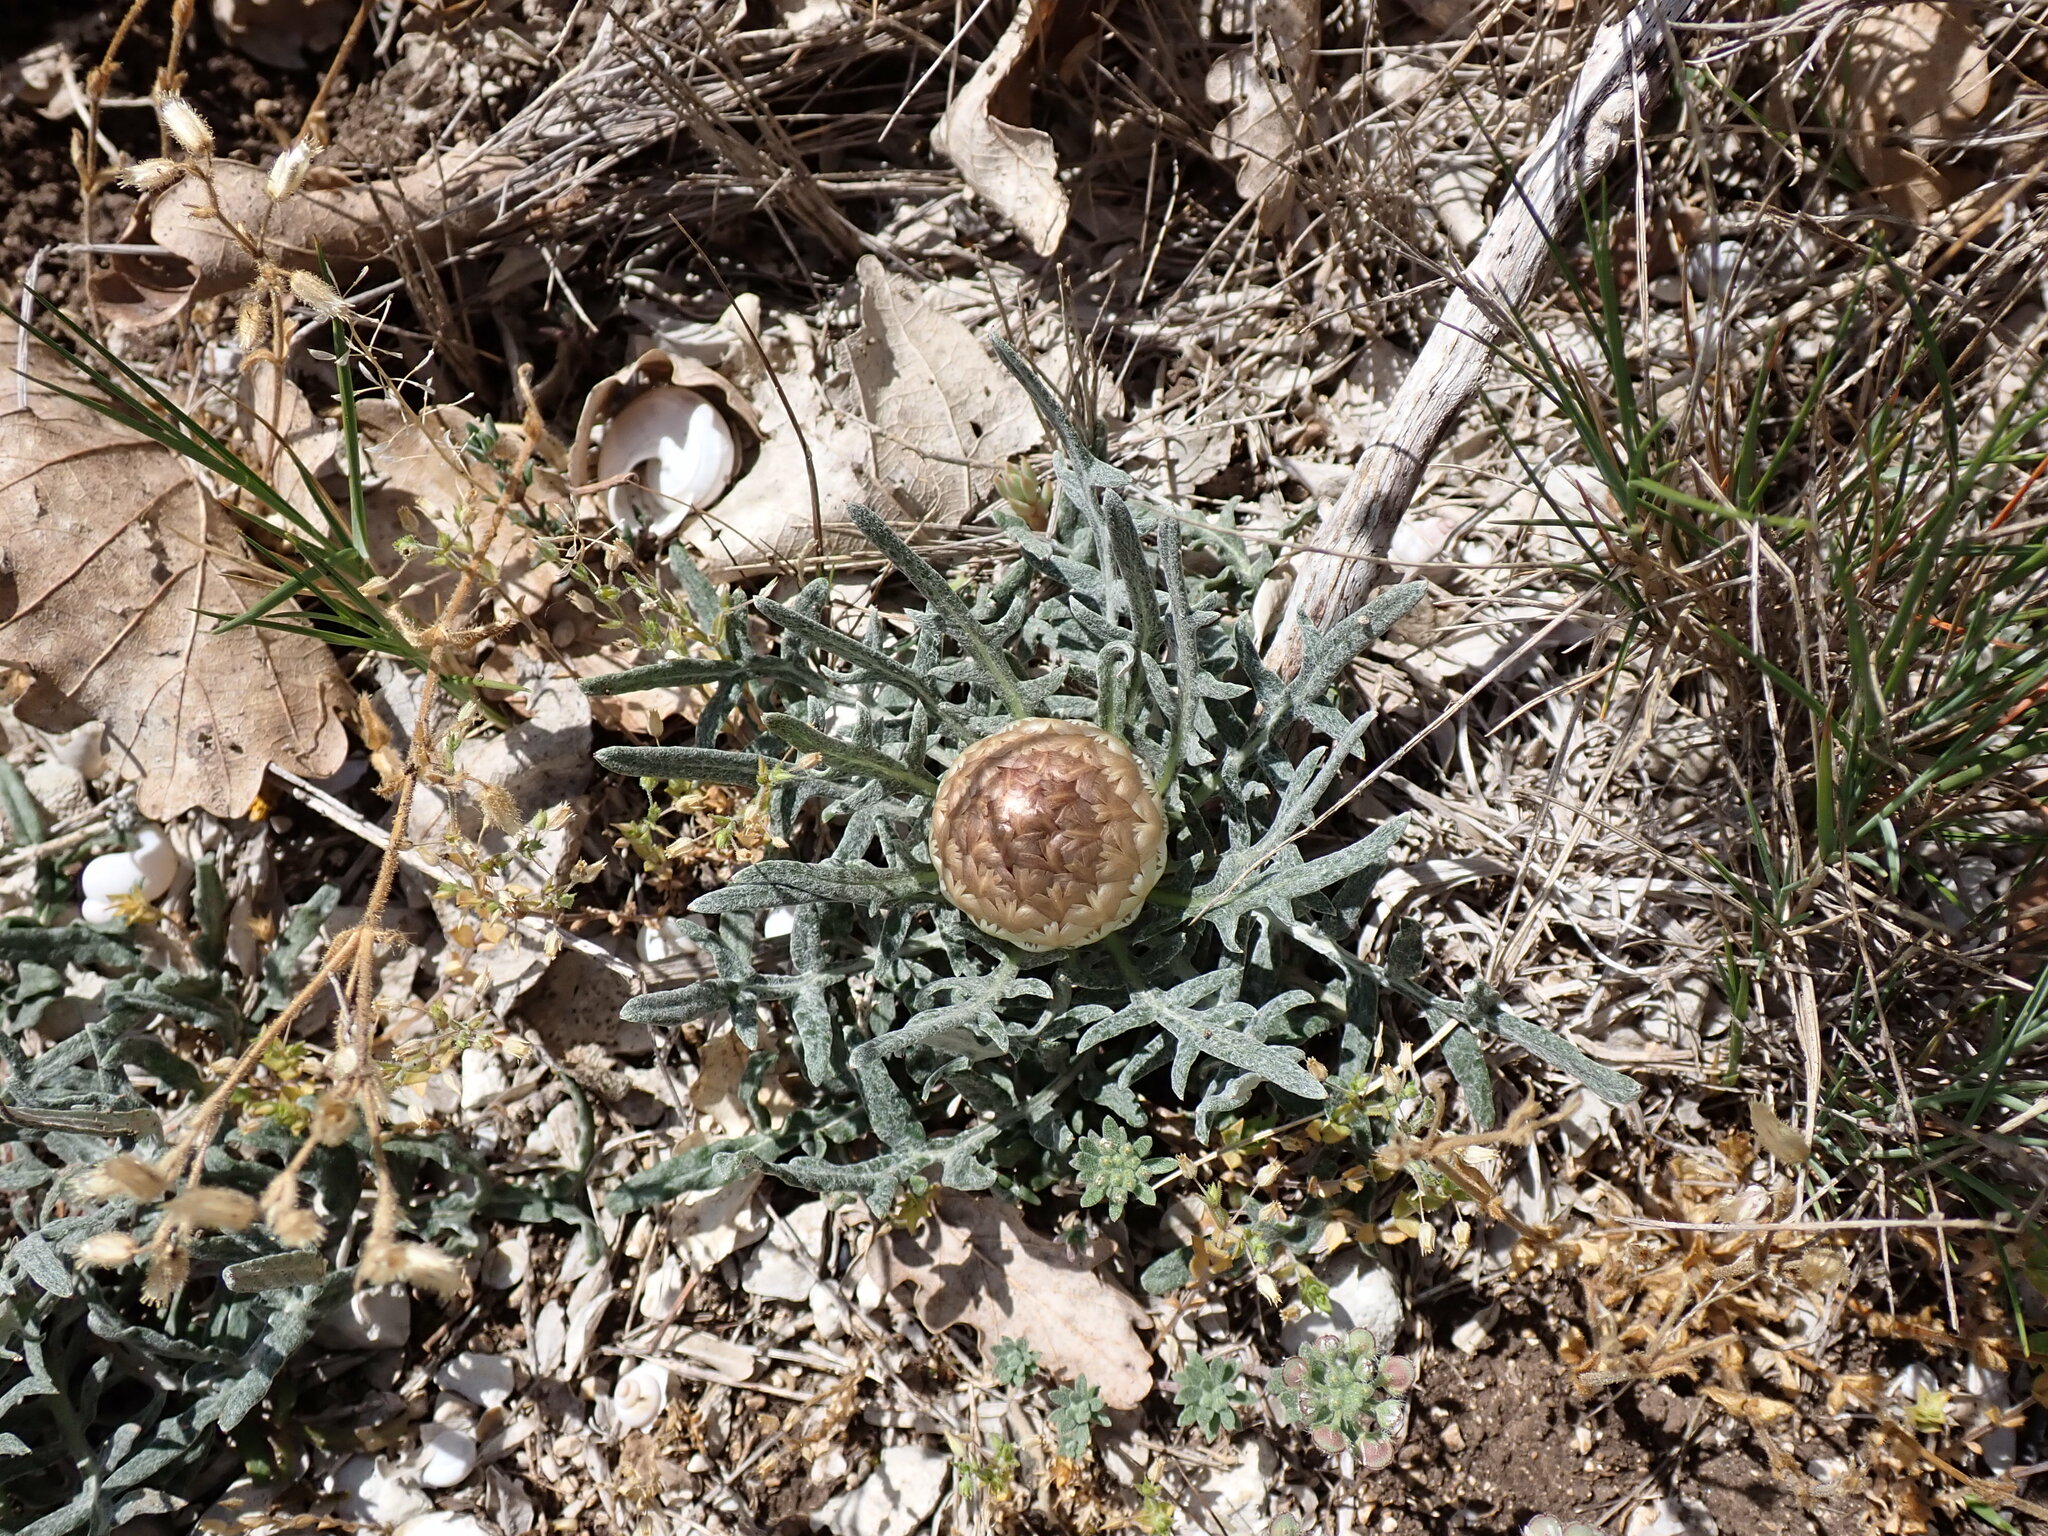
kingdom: Plantae
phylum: Tracheophyta
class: Magnoliopsida
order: Asterales
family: Asteraceae
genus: Leuzea
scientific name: Leuzea conifera
